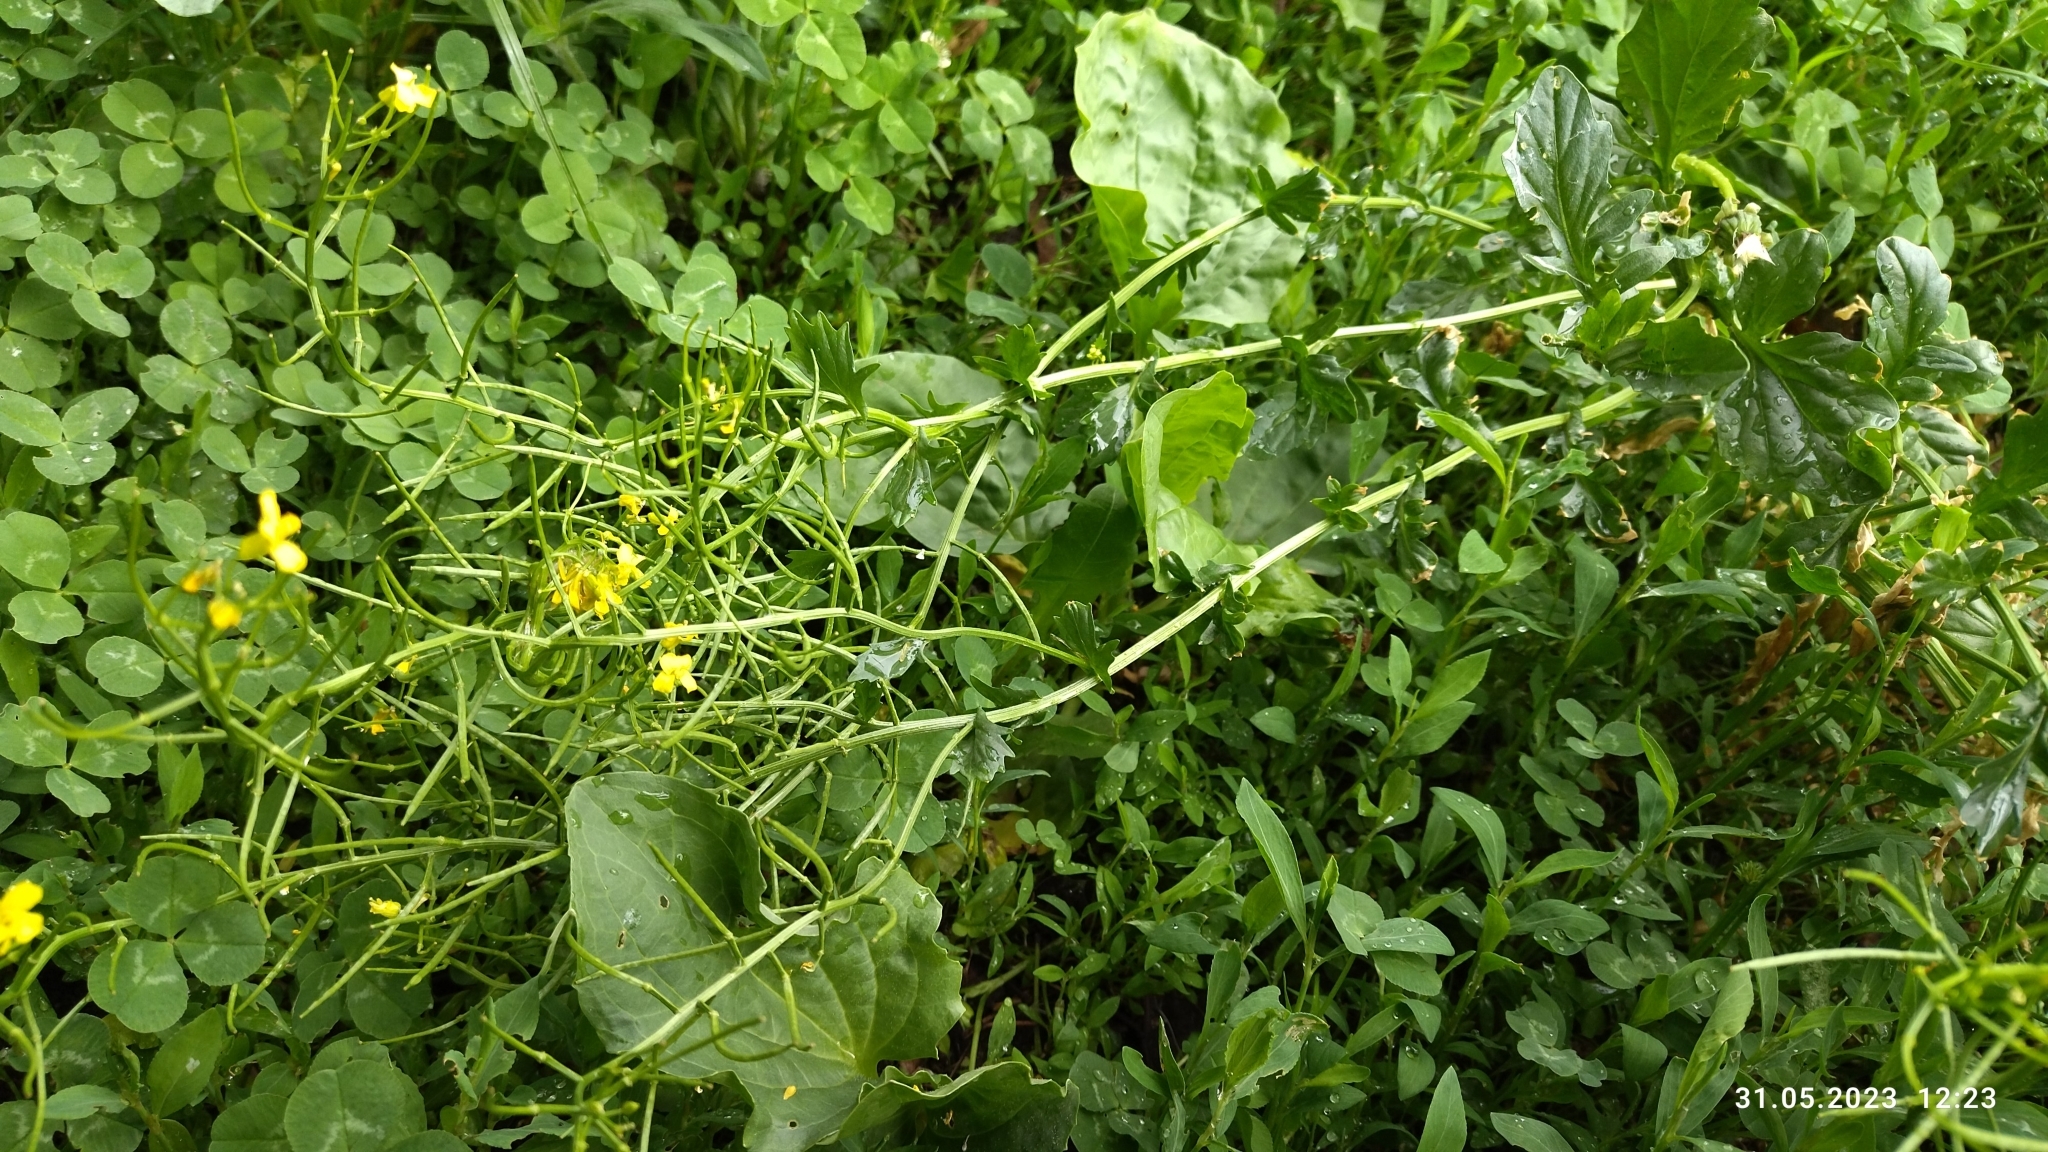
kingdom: Plantae
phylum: Tracheophyta
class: Magnoliopsida
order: Brassicales
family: Brassicaceae
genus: Barbarea
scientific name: Barbarea vulgaris
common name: Cressy-greens
